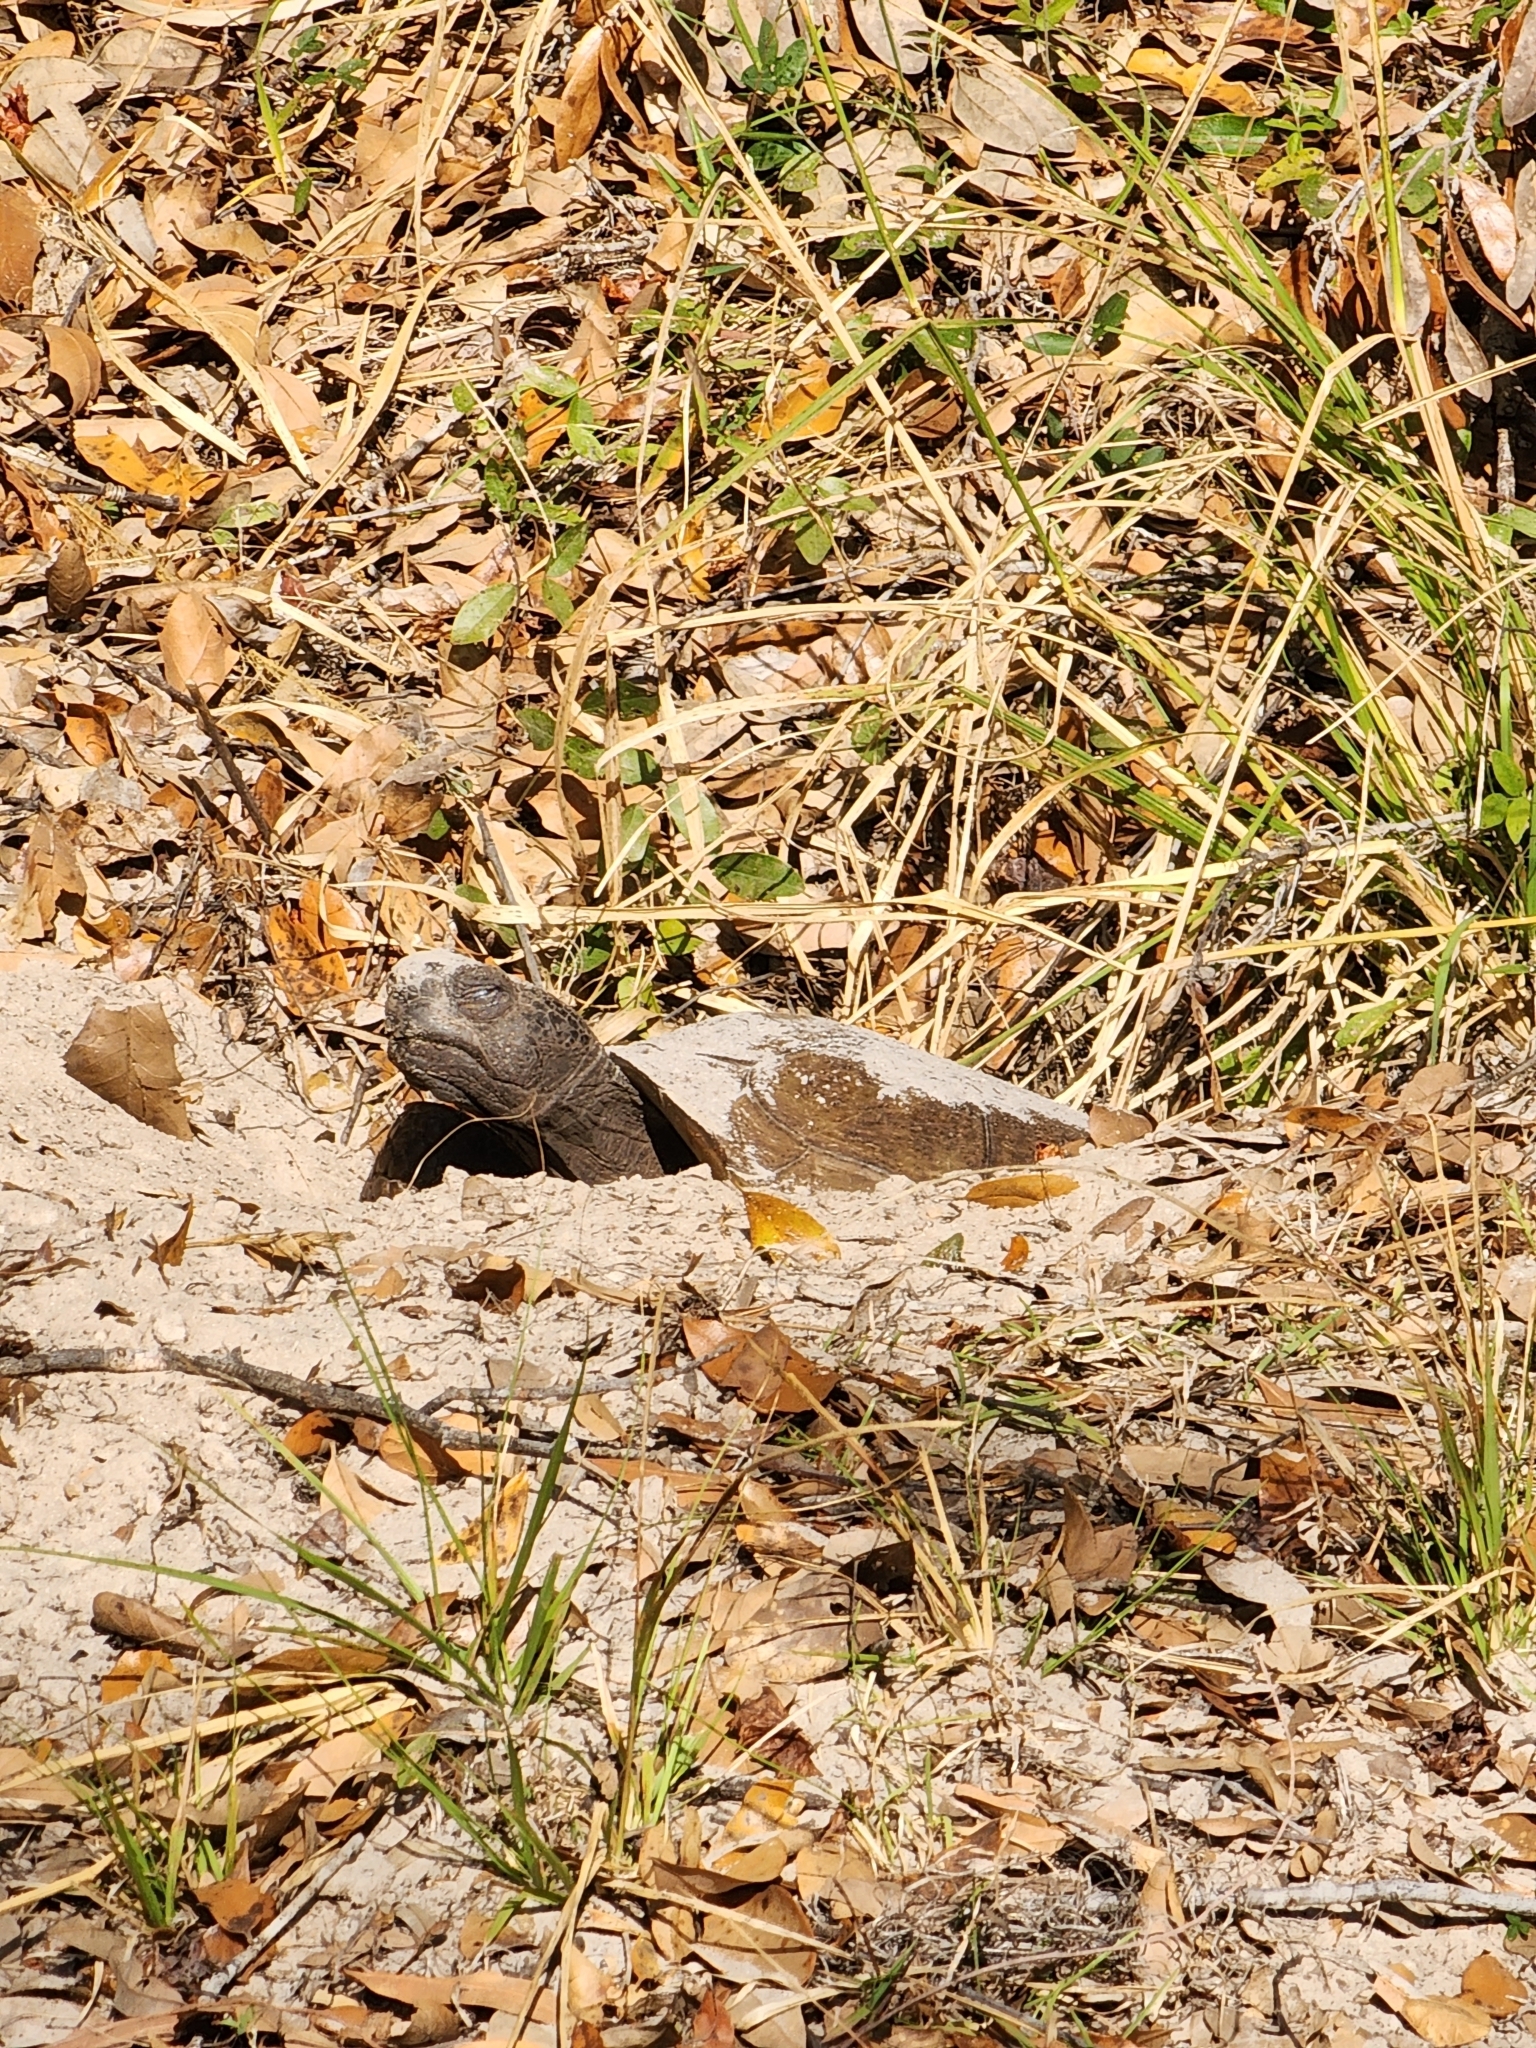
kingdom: Animalia
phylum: Chordata
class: Testudines
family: Testudinidae
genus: Gopherus
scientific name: Gopherus polyphemus
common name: Florida gopher tortoise
